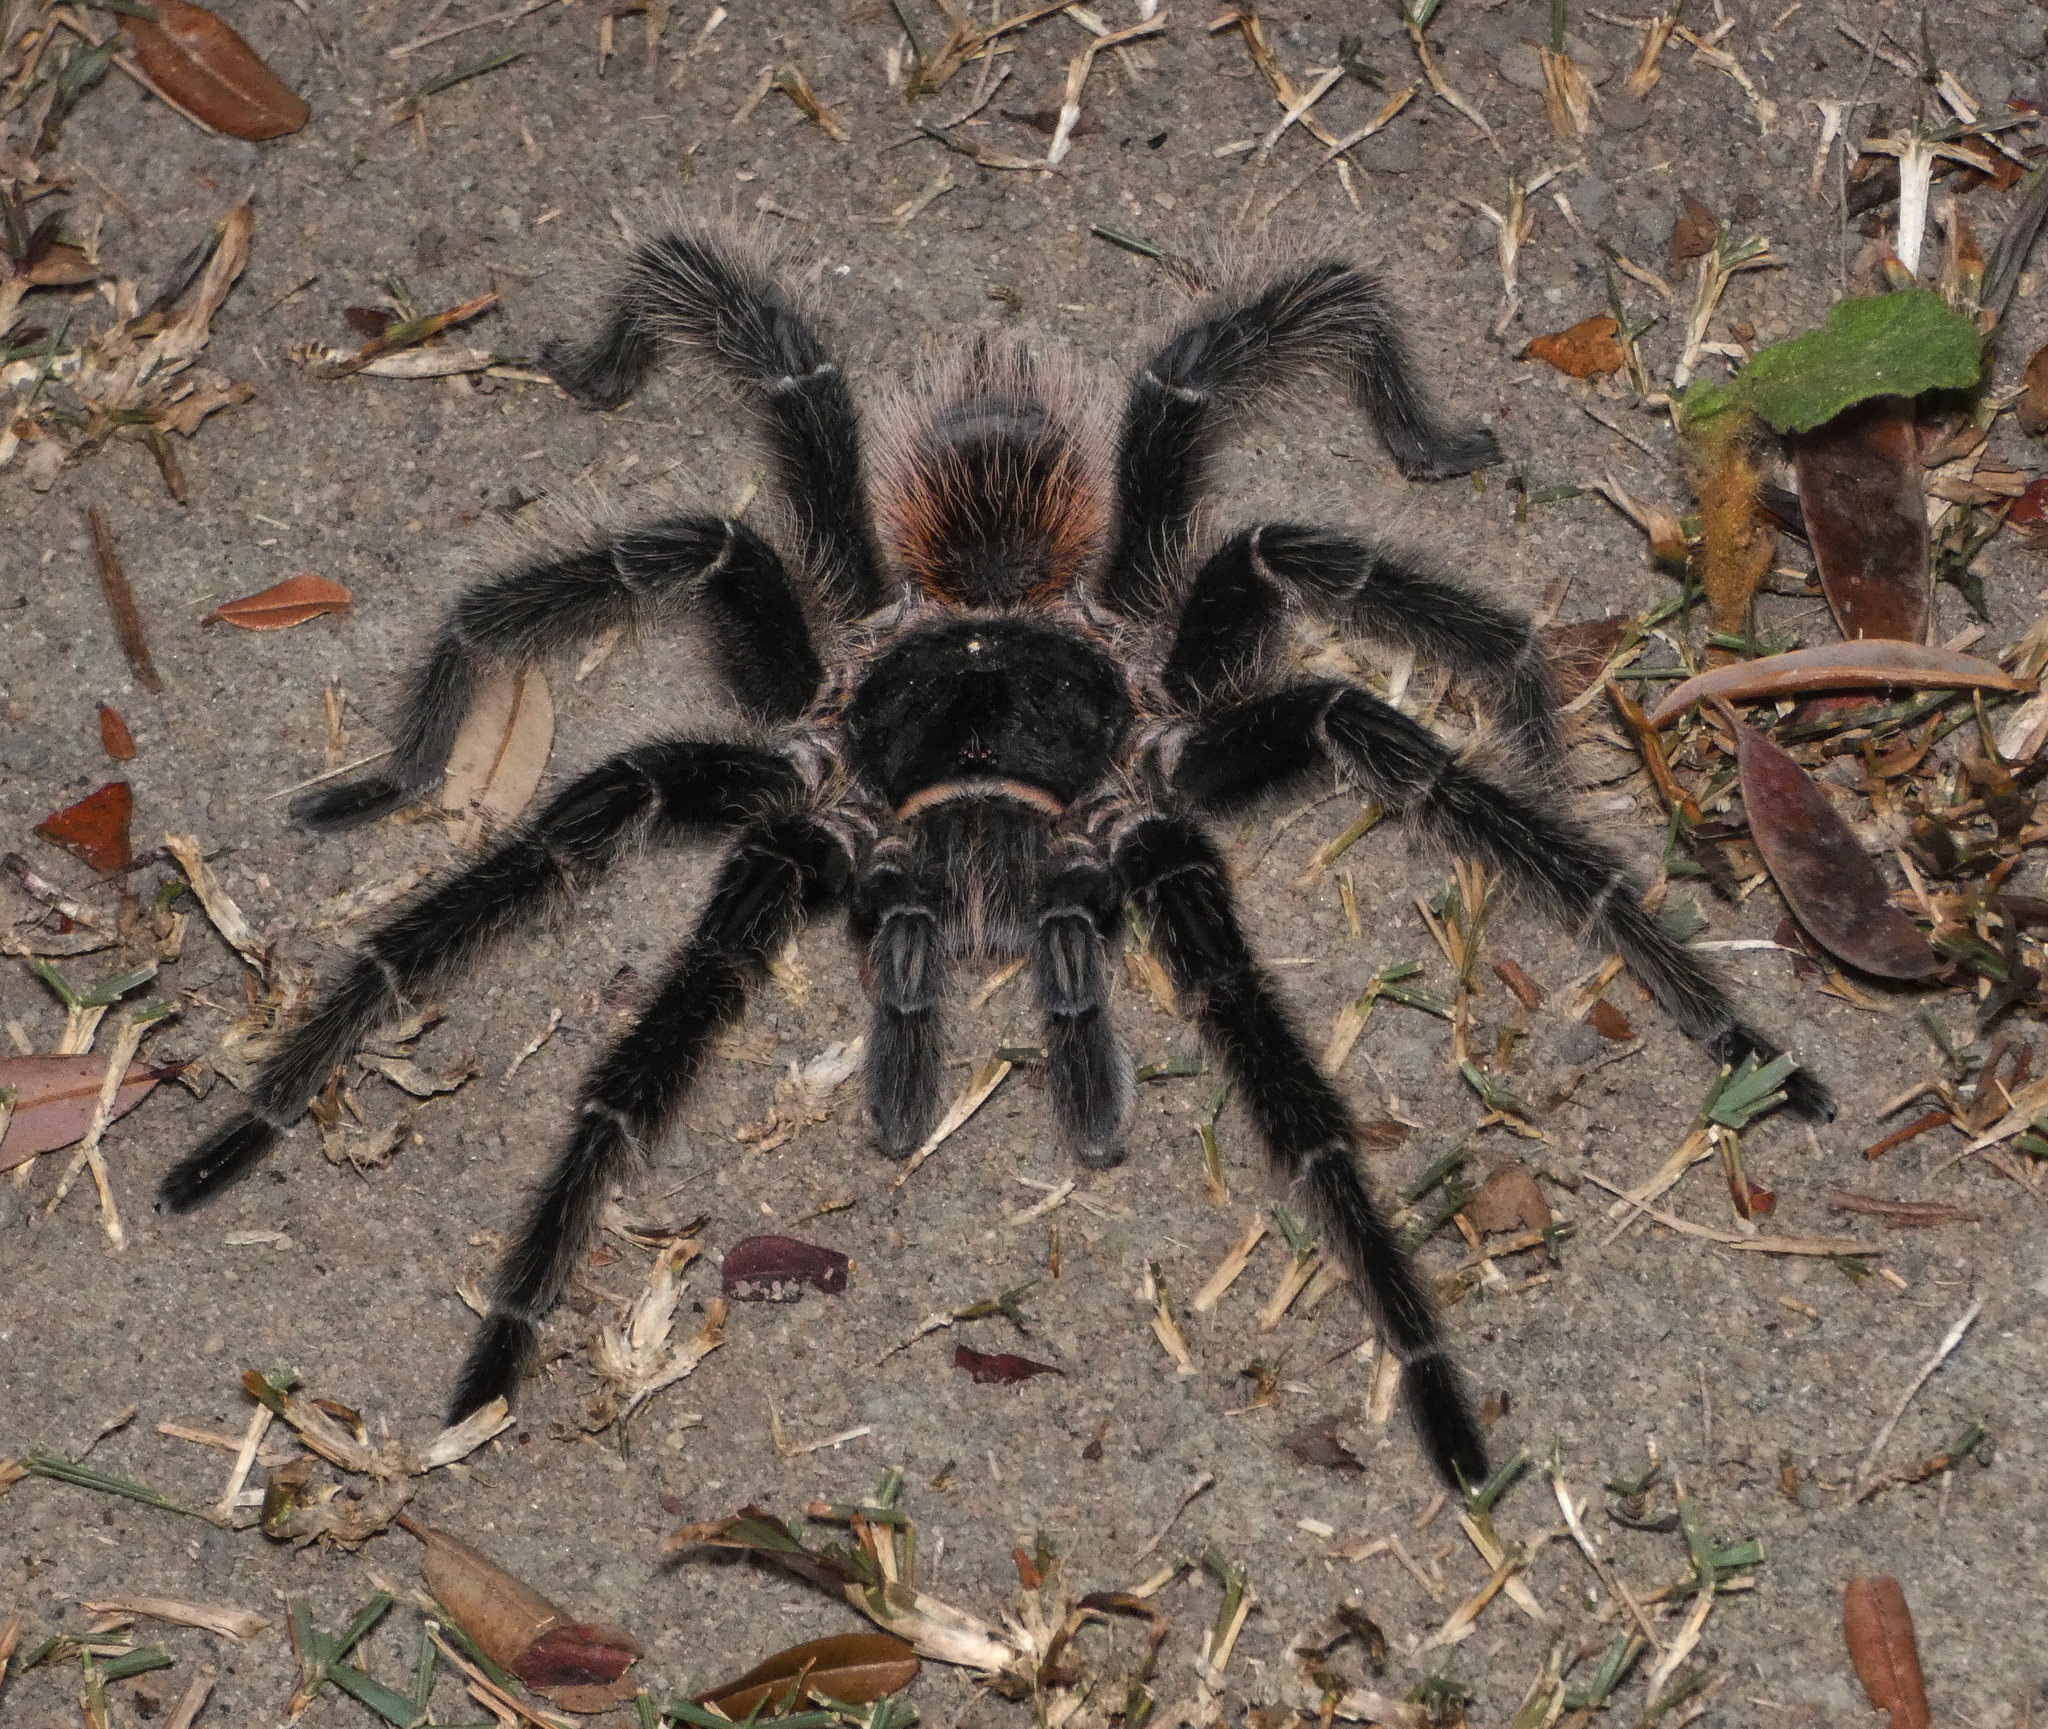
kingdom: Animalia
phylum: Arthropoda
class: Arachnida
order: Araneae
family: Theraphosidae
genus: Lasiodora
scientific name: Lasiodora parahybana
